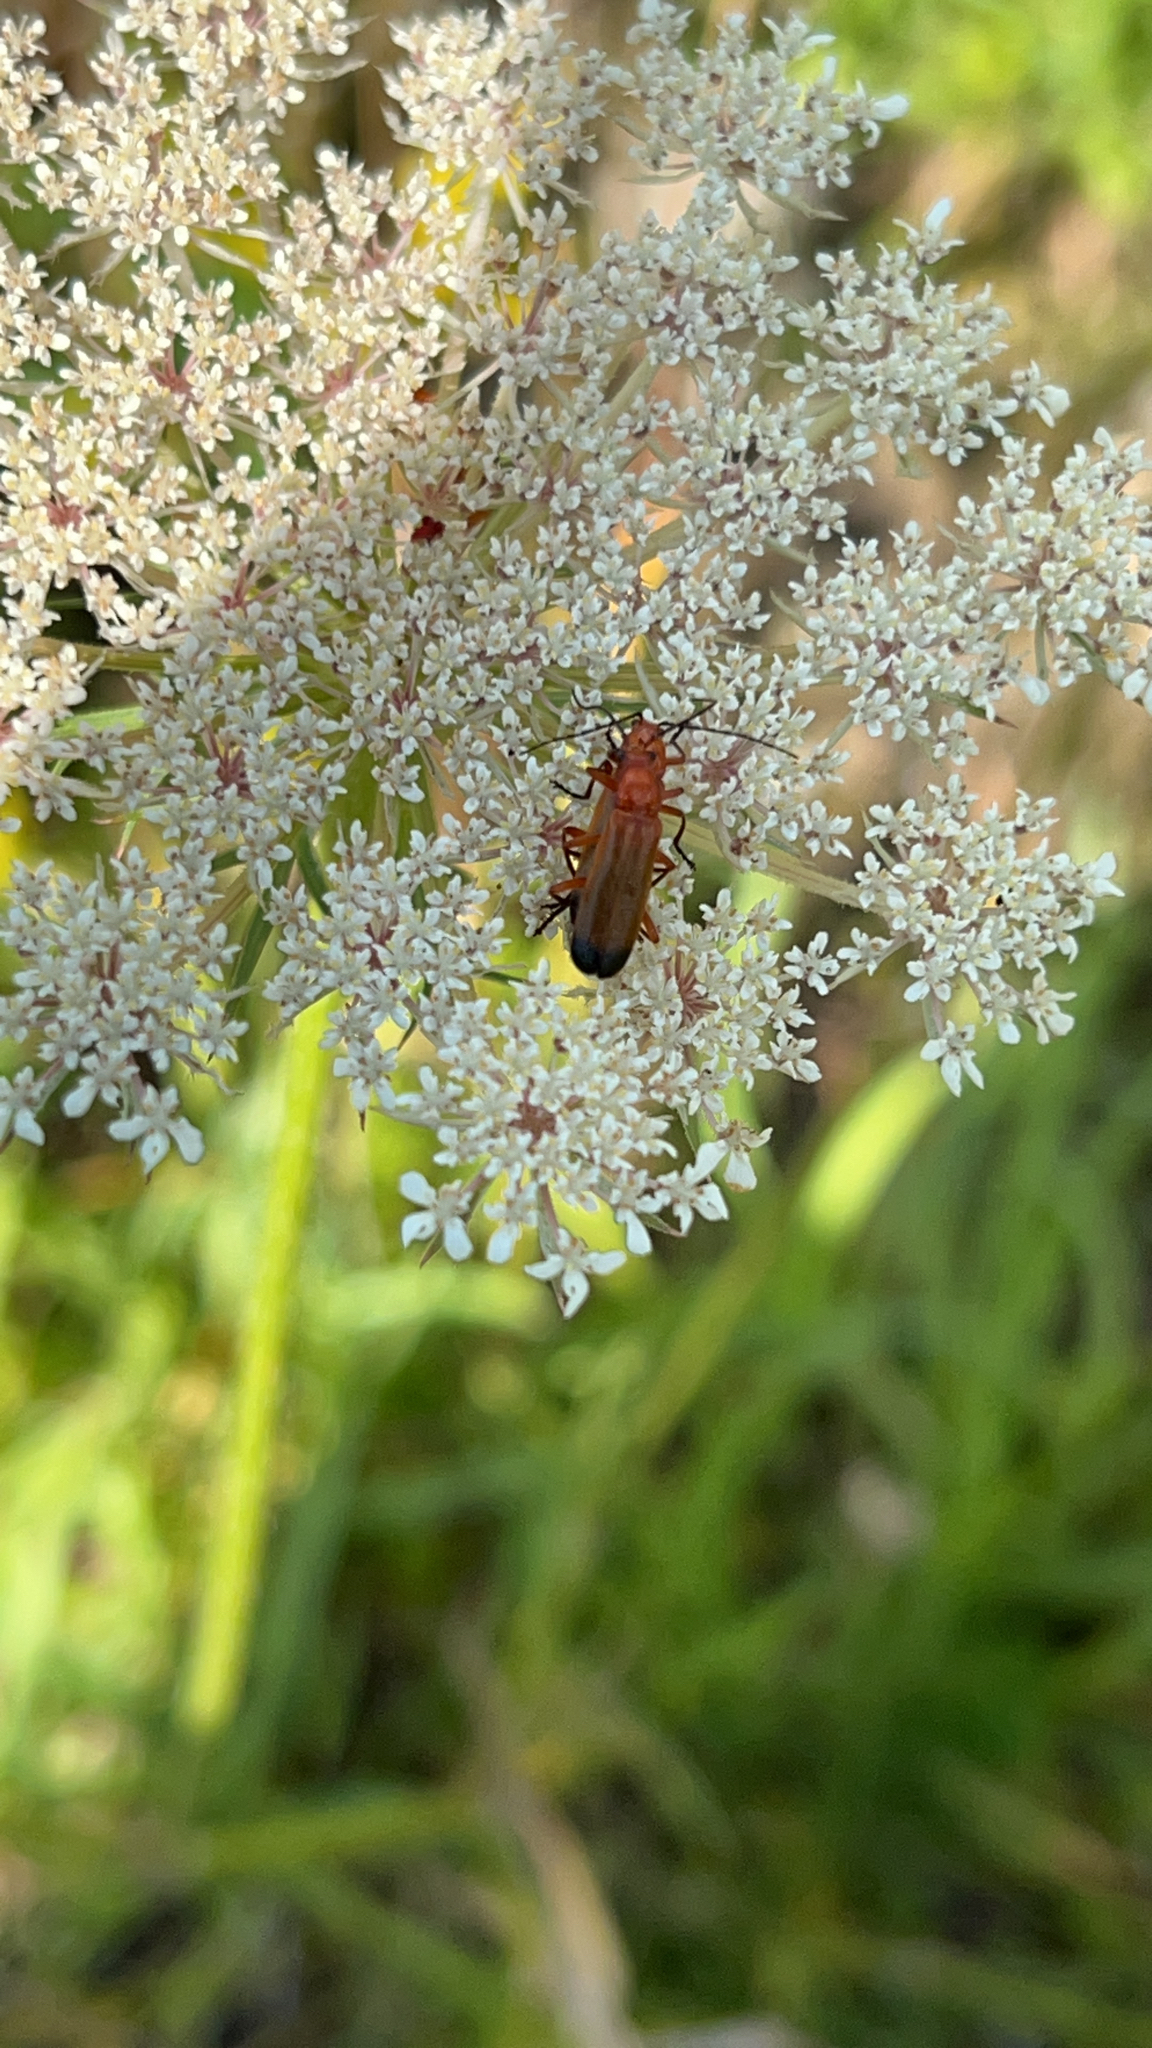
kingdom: Animalia
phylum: Arthropoda
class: Insecta
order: Coleoptera
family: Cantharidae
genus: Rhagonycha
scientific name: Rhagonycha fulva
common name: Common red soldier beetle
